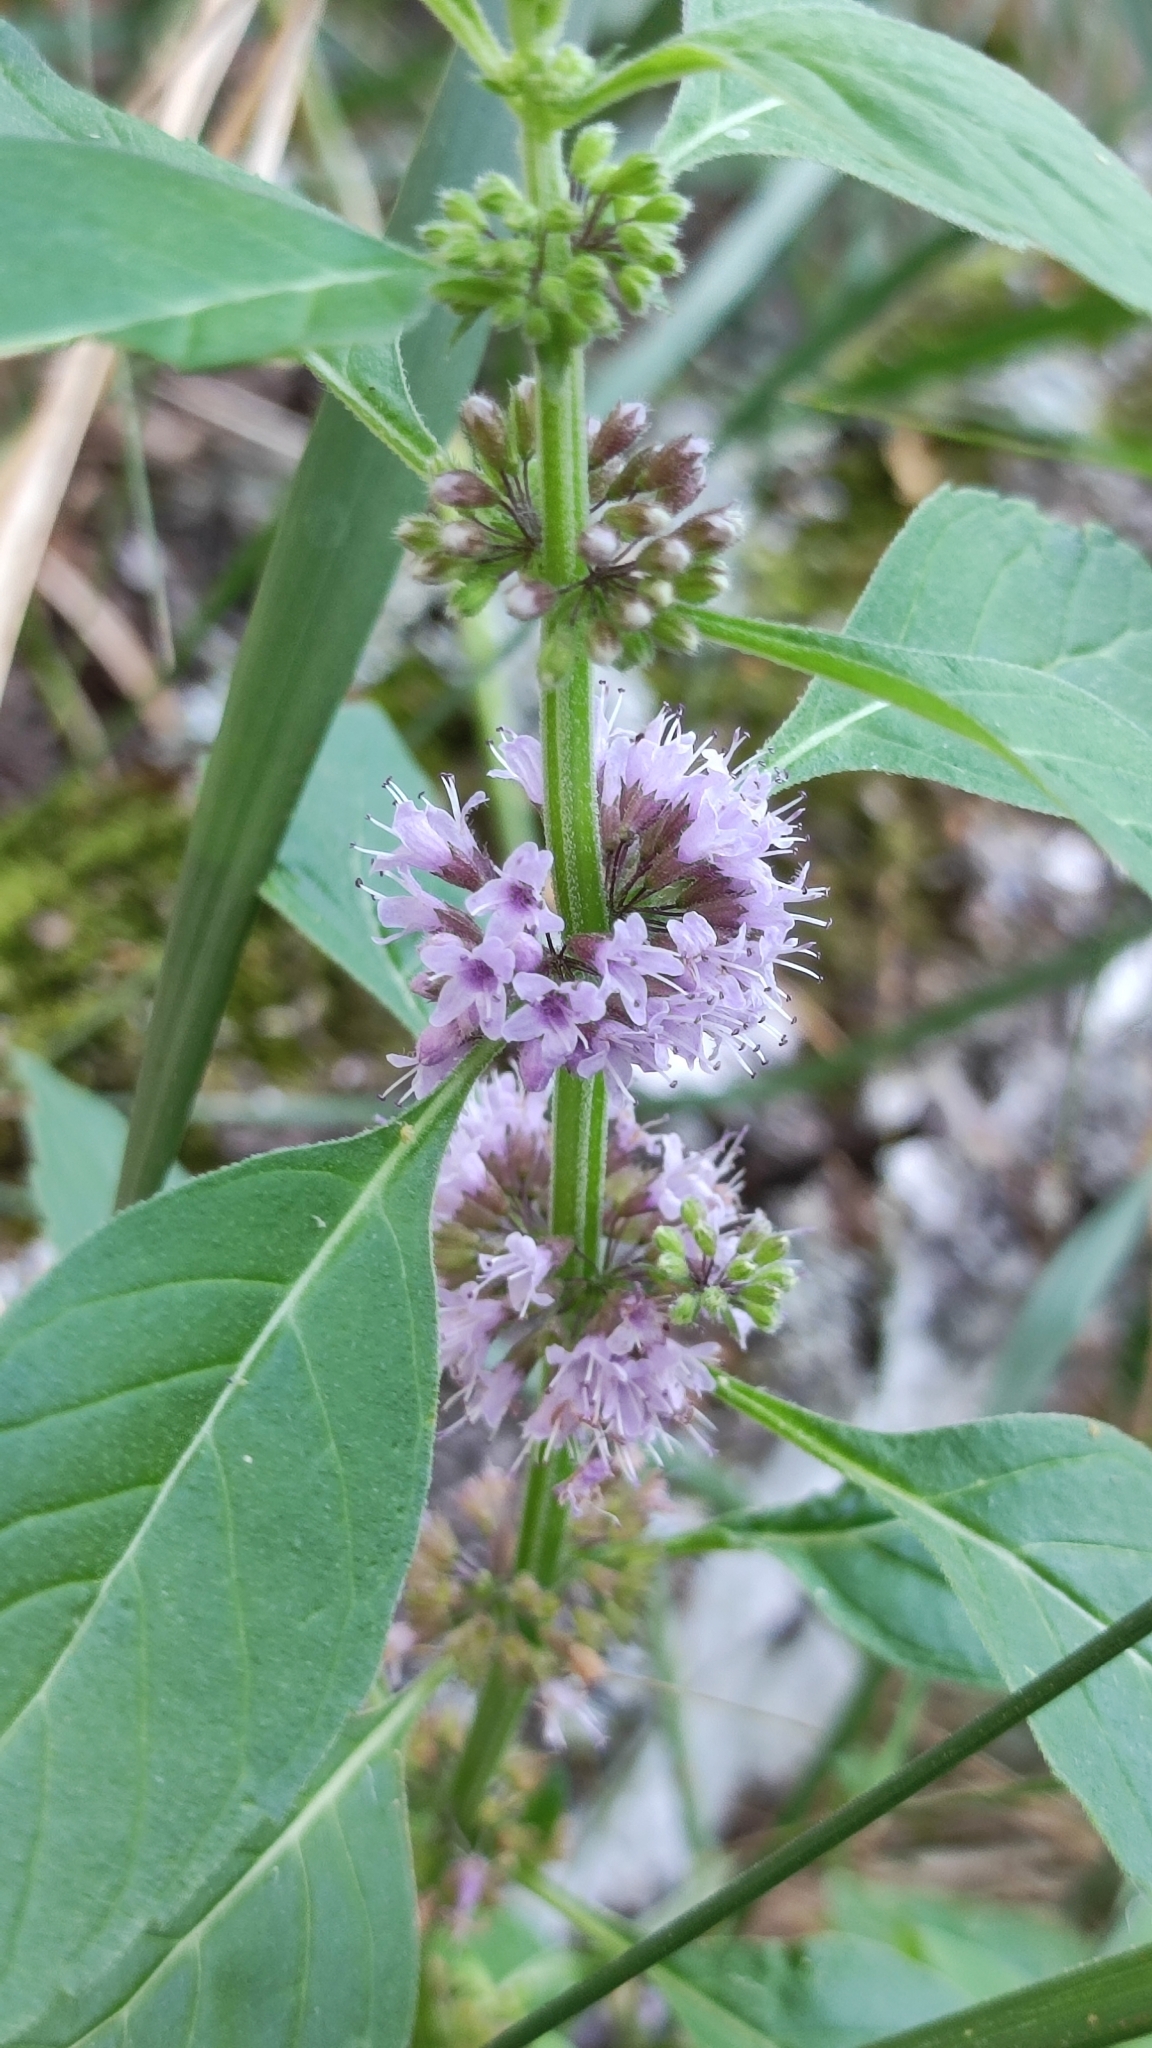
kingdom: Plantae
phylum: Tracheophyta
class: Magnoliopsida
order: Lamiales
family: Lamiaceae
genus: Mentha
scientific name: Mentha arvensis
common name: Corn mint
